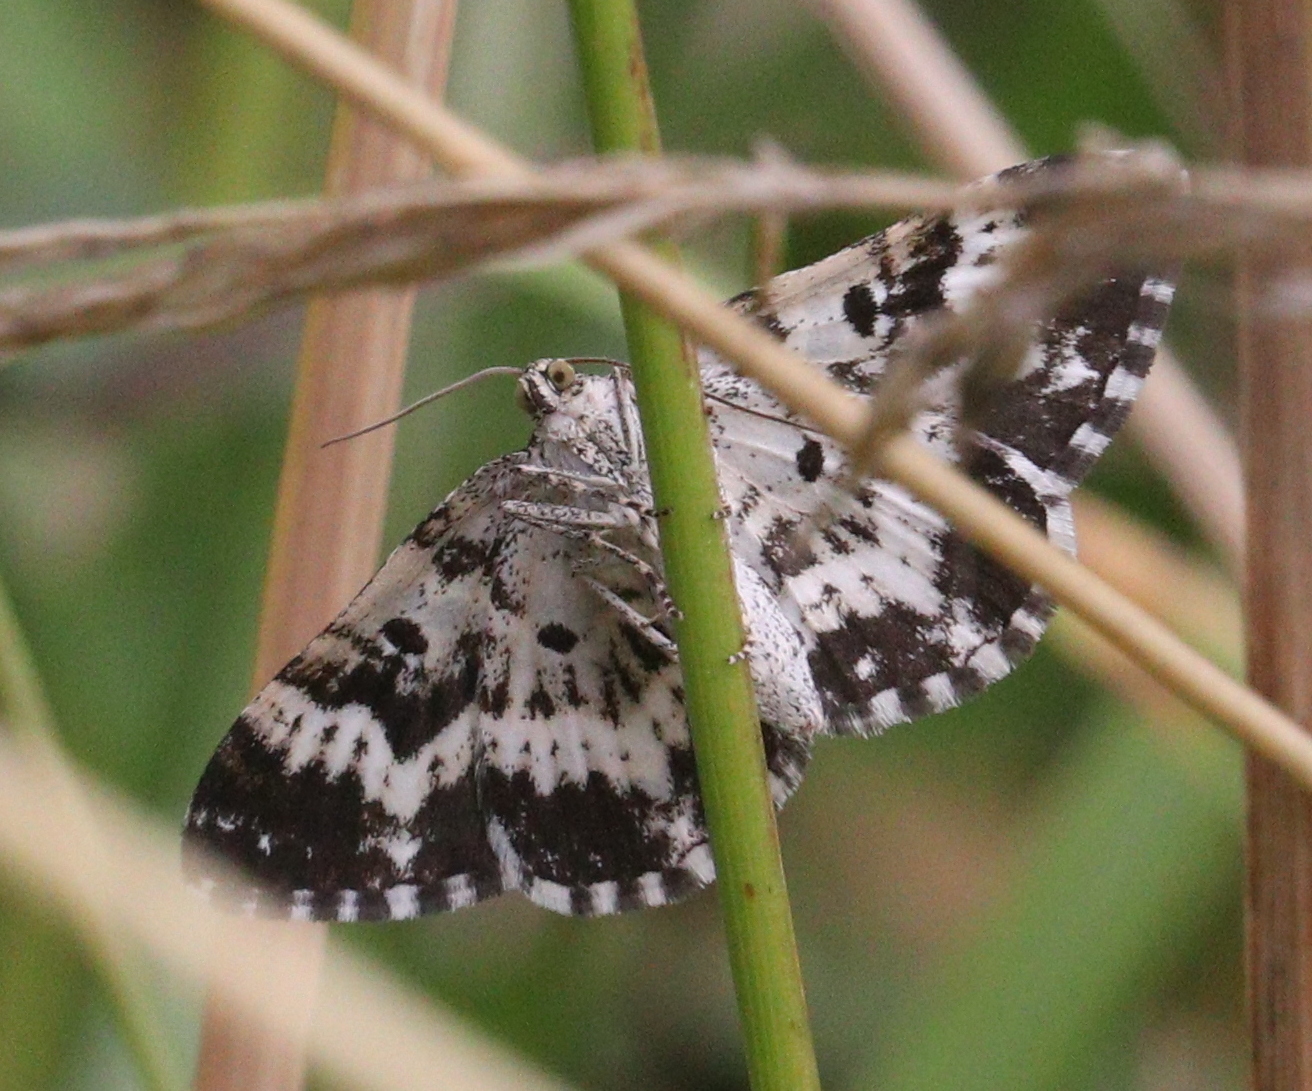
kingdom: Animalia
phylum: Arthropoda
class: Insecta
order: Lepidoptera
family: Geometridae
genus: Epirrhoe
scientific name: Epirrhoe tristata
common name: Small argent & sable
